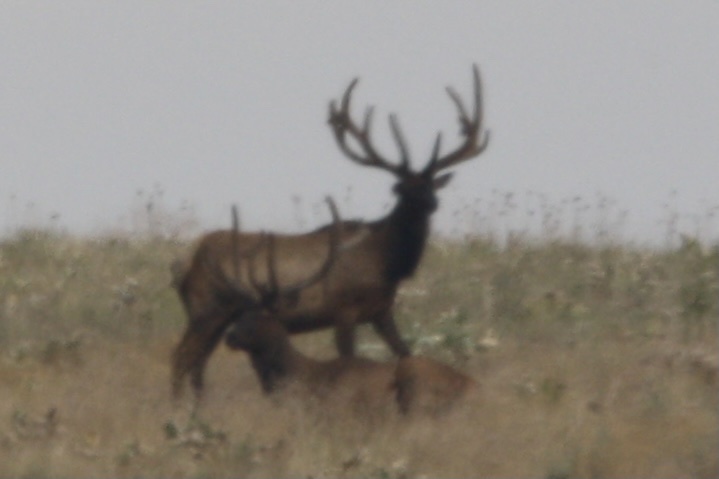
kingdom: Animalia
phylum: Chordata
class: Mammalia
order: Artiodactyla
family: Cervidae
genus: Cervus
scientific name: Cervus elaphus
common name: Red deer
